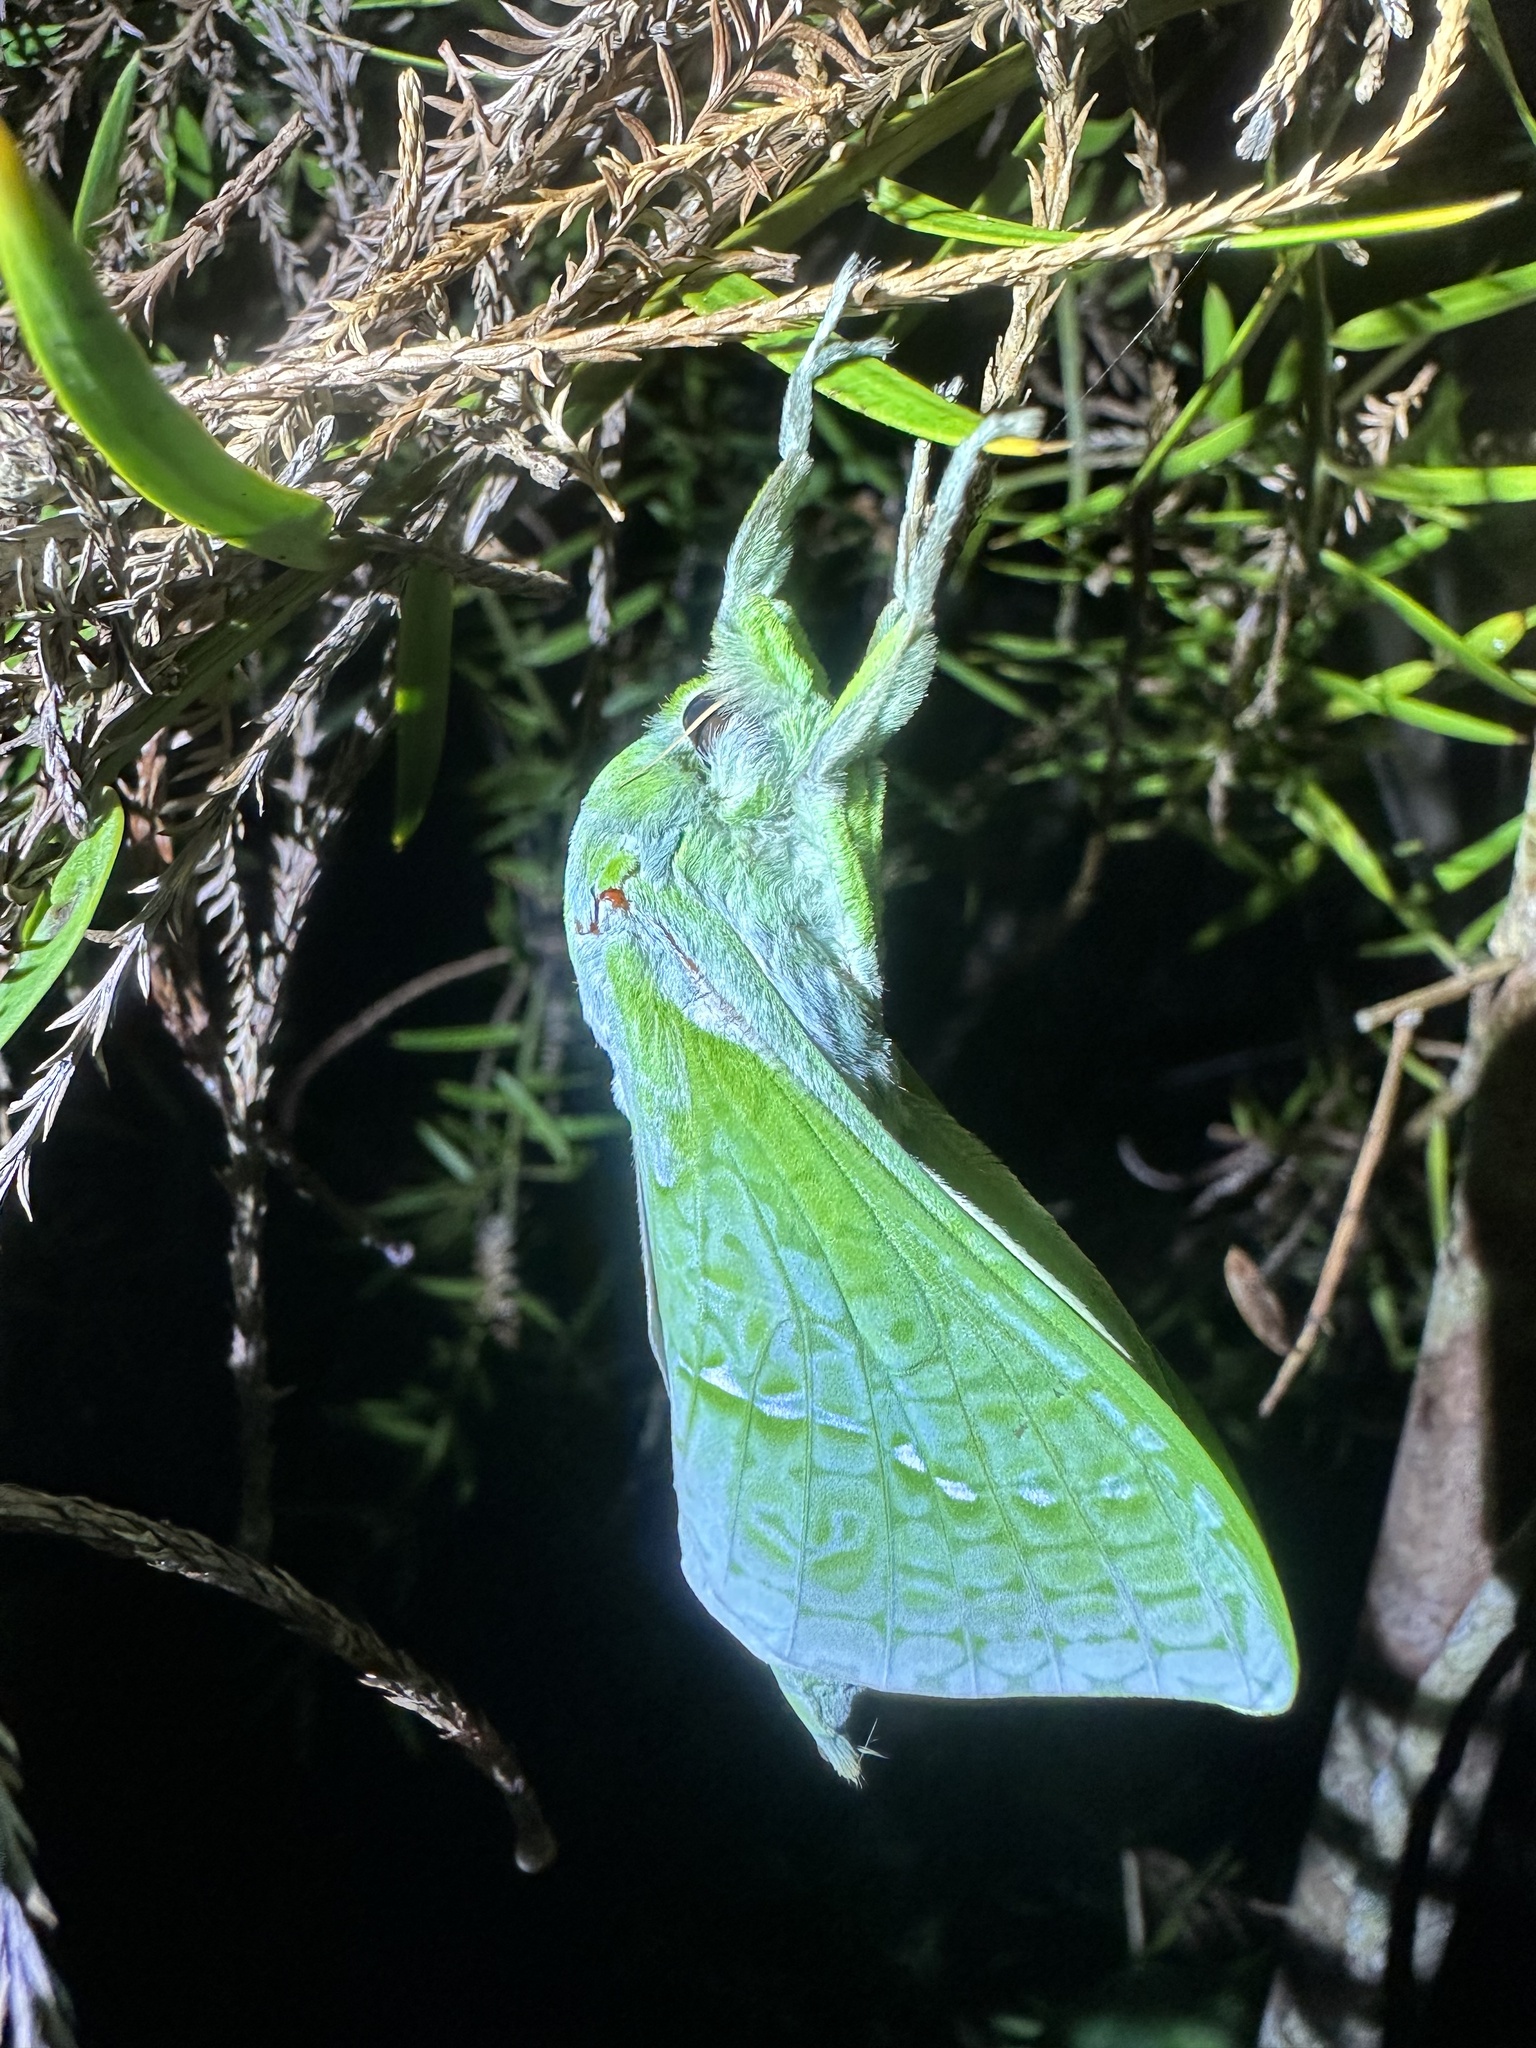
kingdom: Animalia
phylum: Arthropoda
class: Insecta
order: Lepidoptera
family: Hepialidae
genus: Aenetus
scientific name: Aenetus virescens
